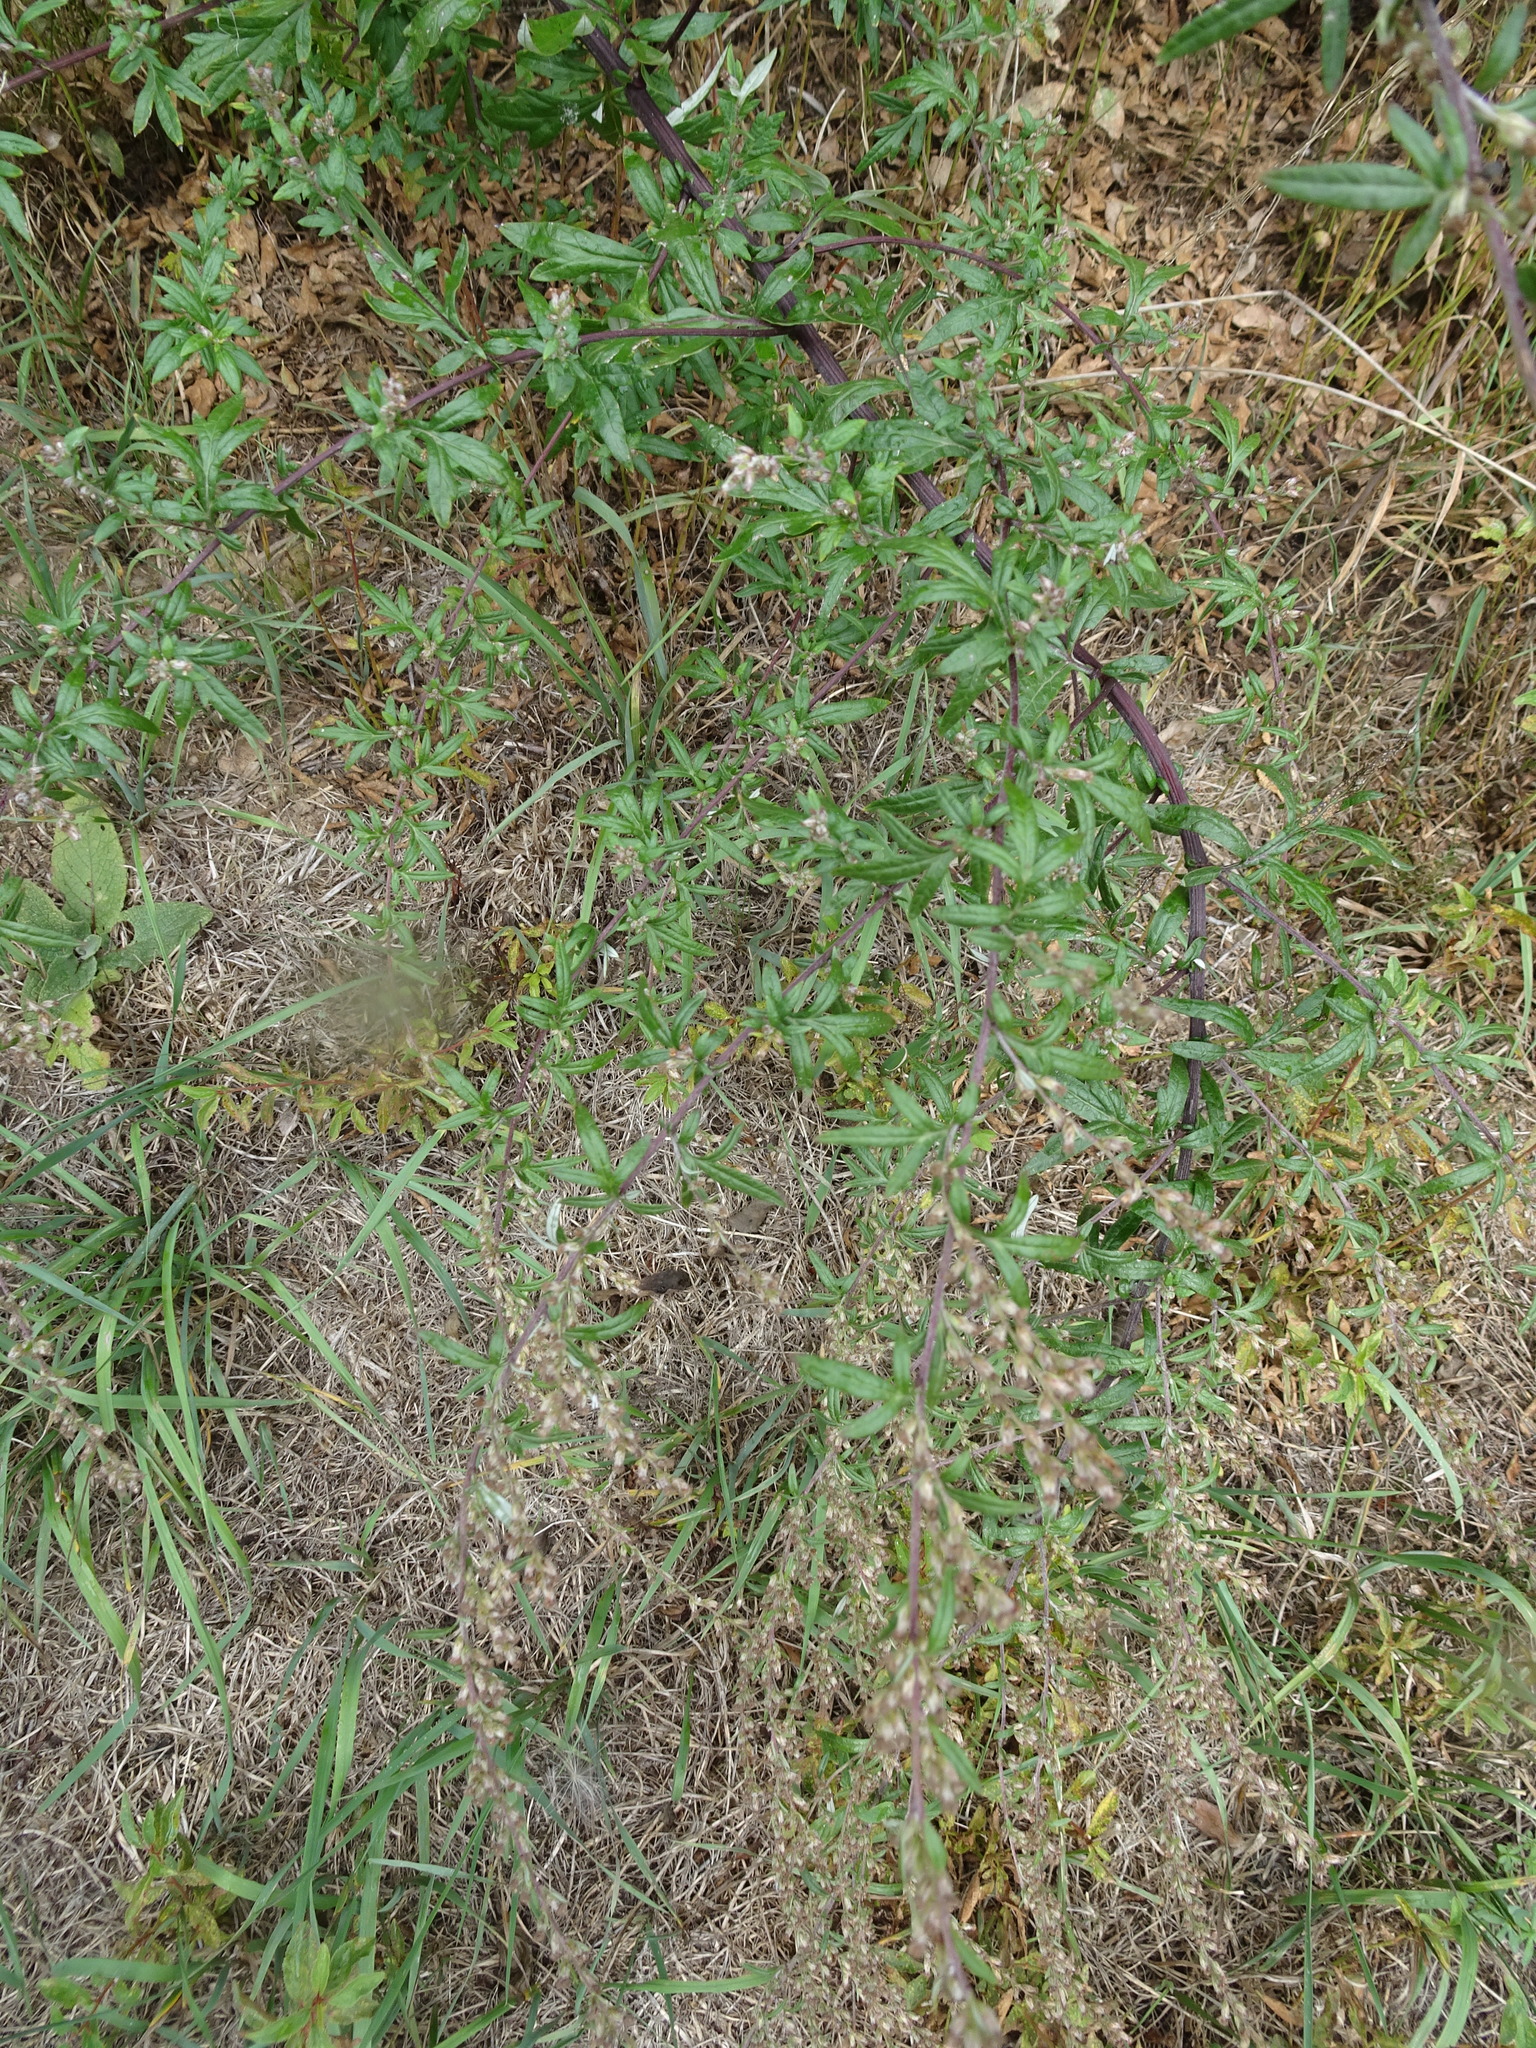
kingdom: Plantae
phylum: Tracheophyta
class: Magnoliopsida
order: Asterales
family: Asteraceae
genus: Artemisia
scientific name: Artemisia vulgaris
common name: Mugwort
